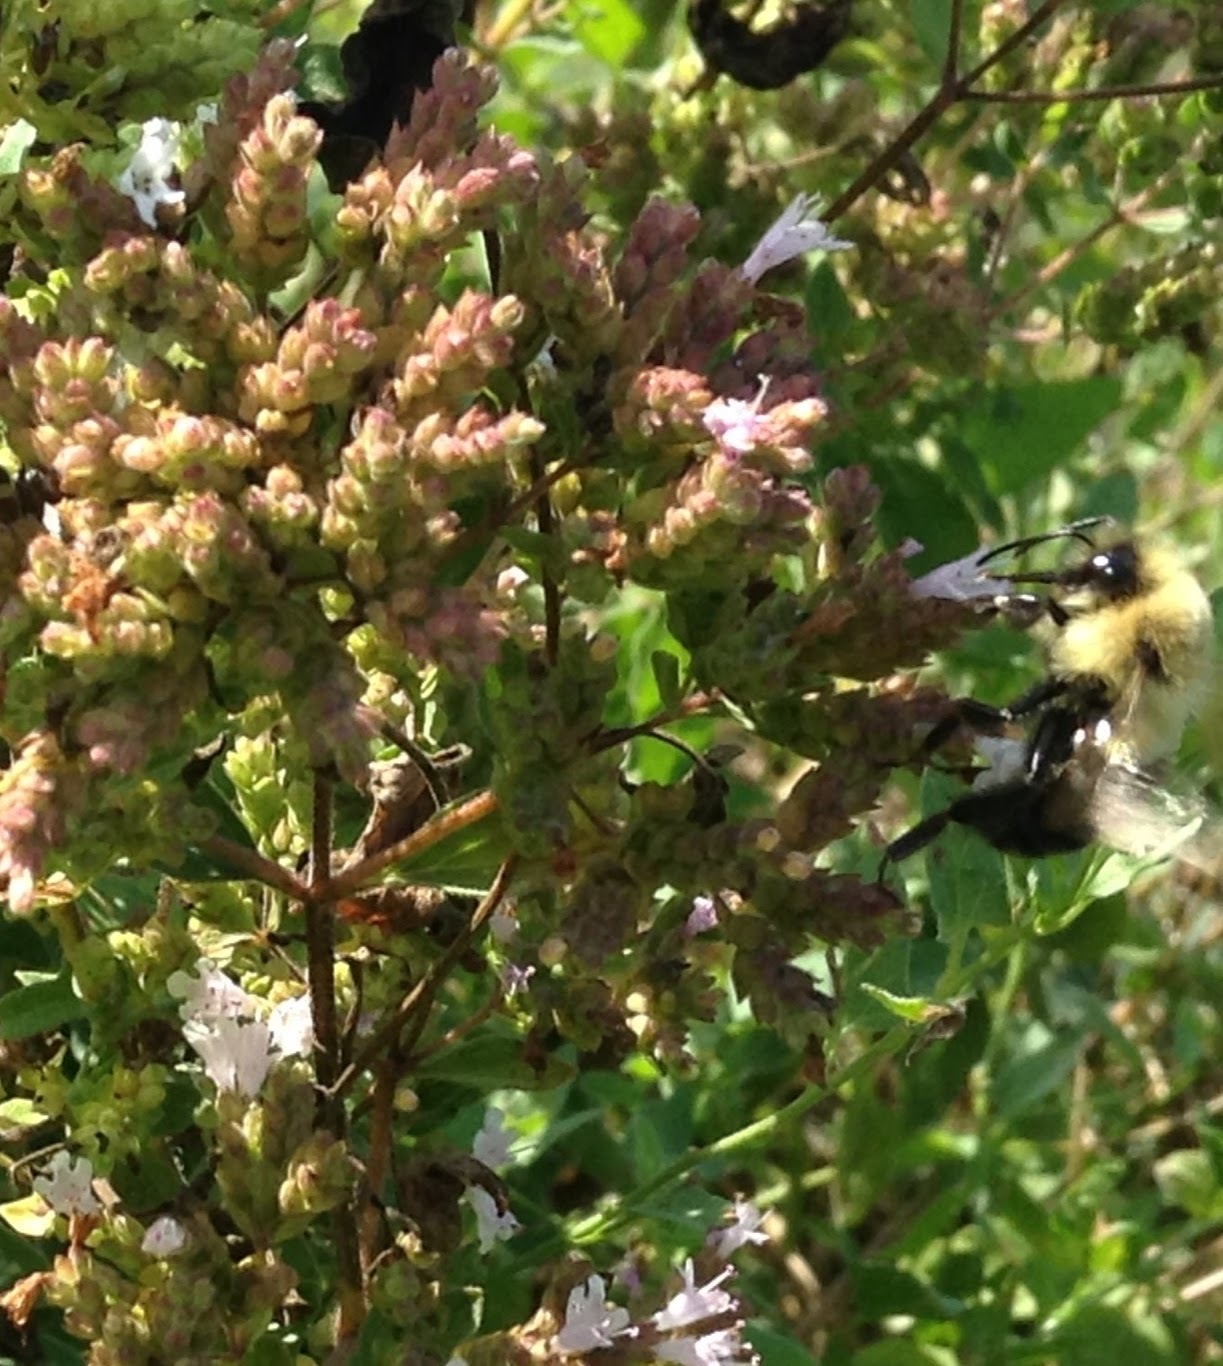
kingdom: Animalia
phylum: Arthropoda
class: Insecta
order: Hymenoptera
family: Apidae
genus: Bombus
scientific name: Bombus impatiens
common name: Common eastern bumble bee
